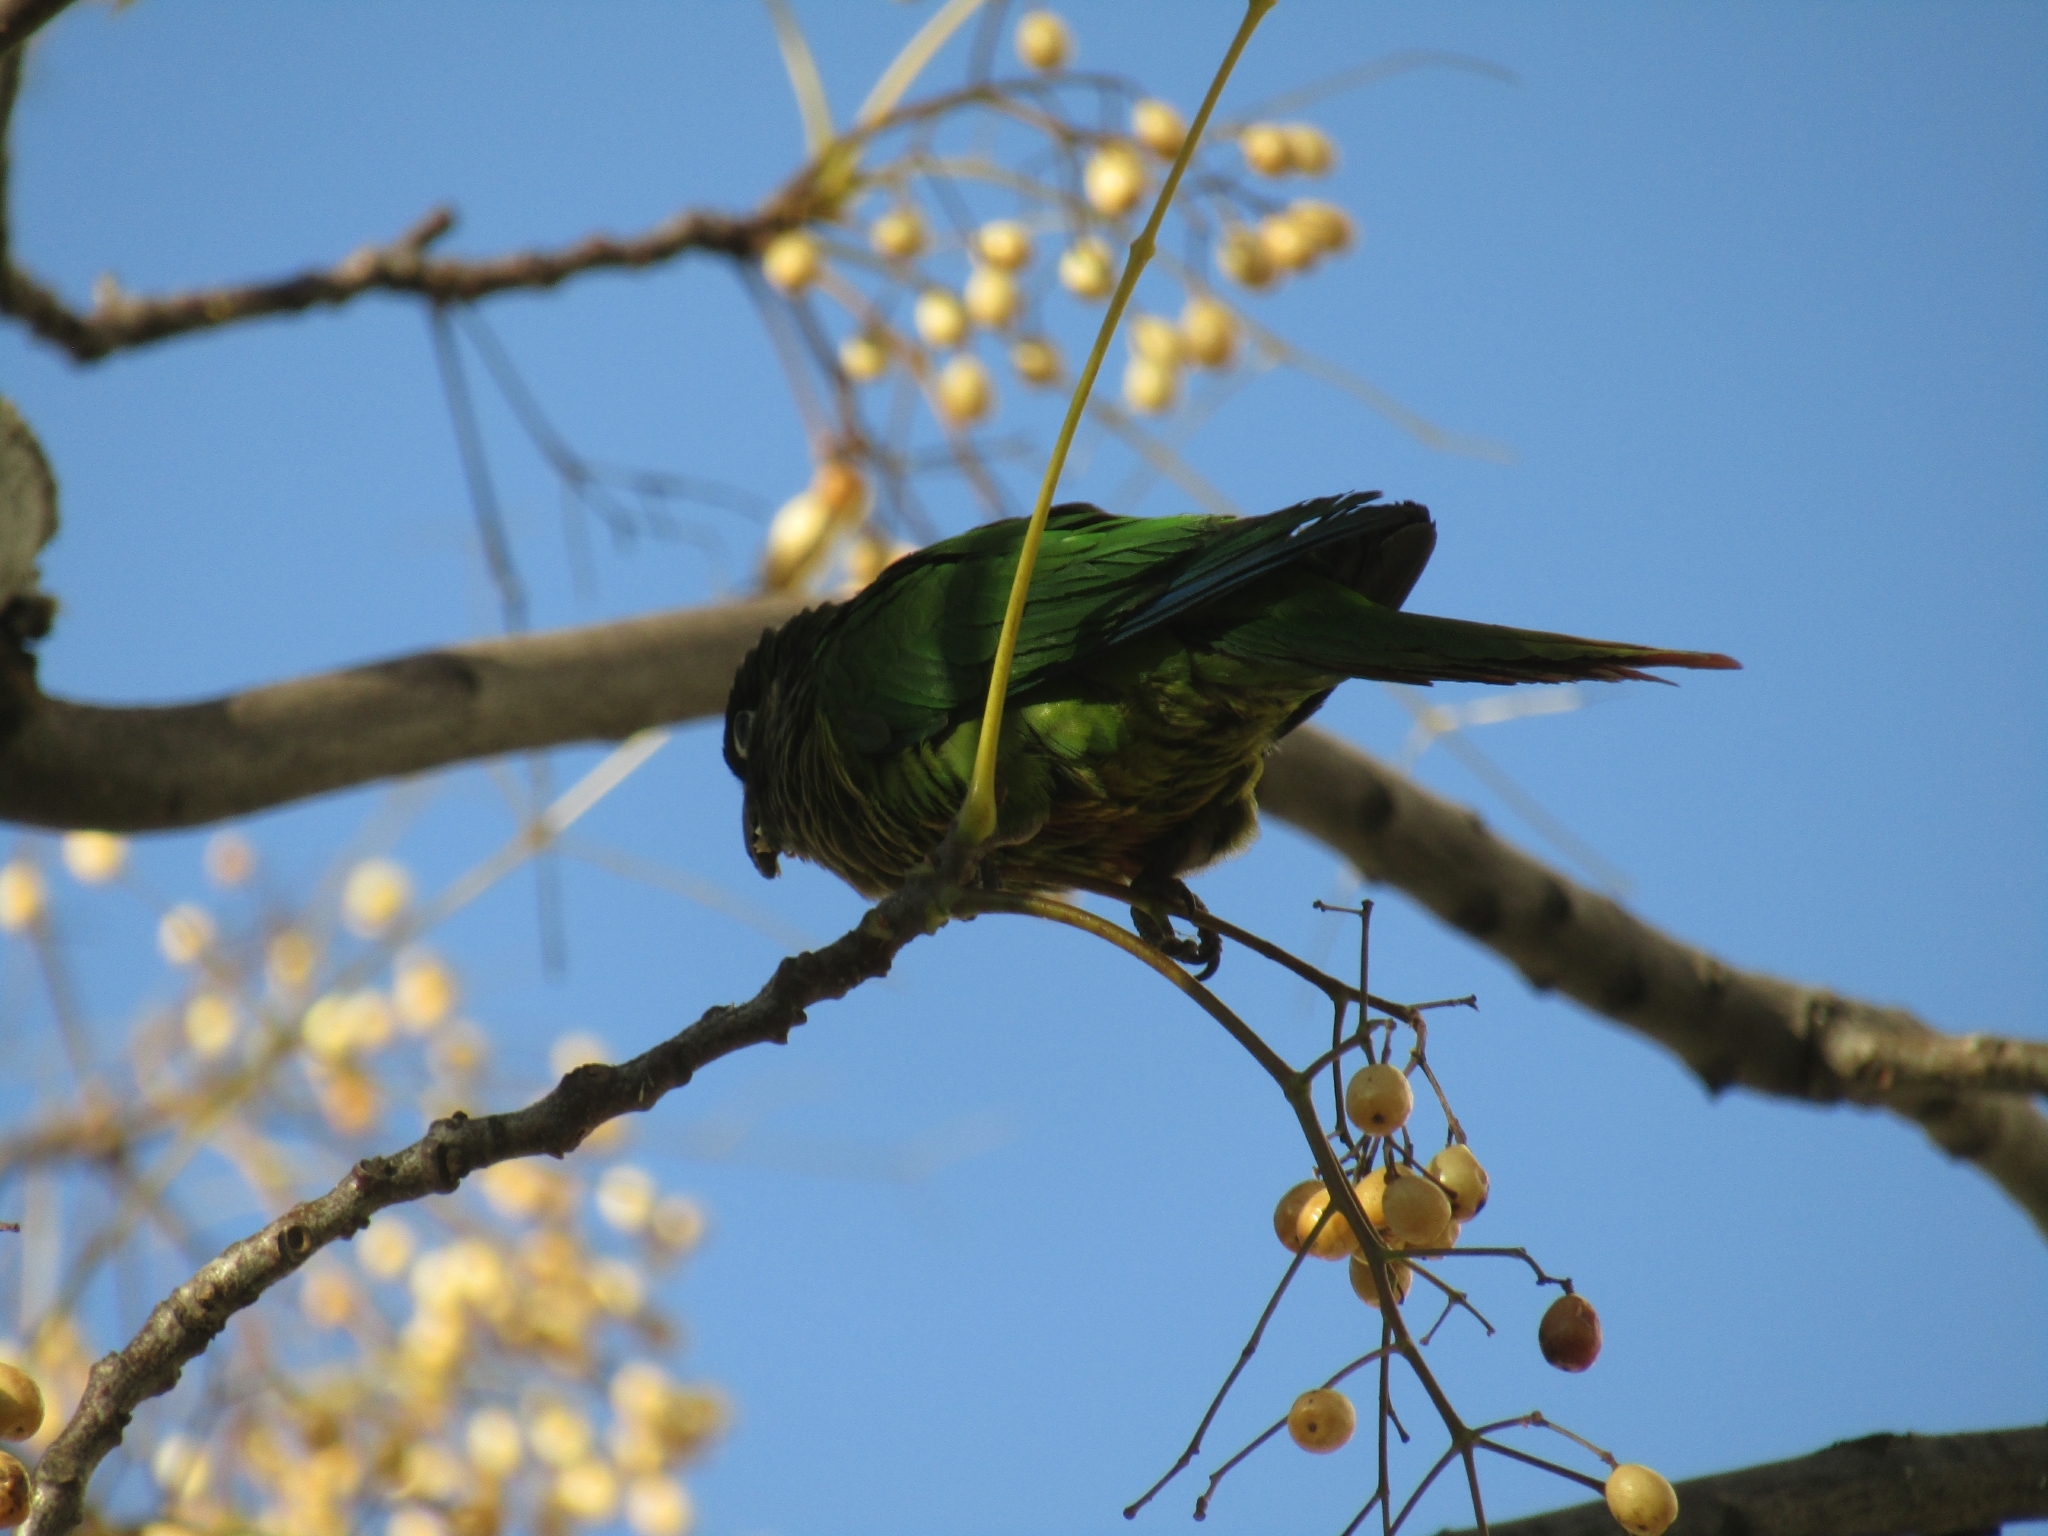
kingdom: Animalia
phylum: Chordata
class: Aves
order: Psittaciformes
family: Psittacidae
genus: Pyrrhura
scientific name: Pyrrhura frontalis
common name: Maroon-bellied parakeet
